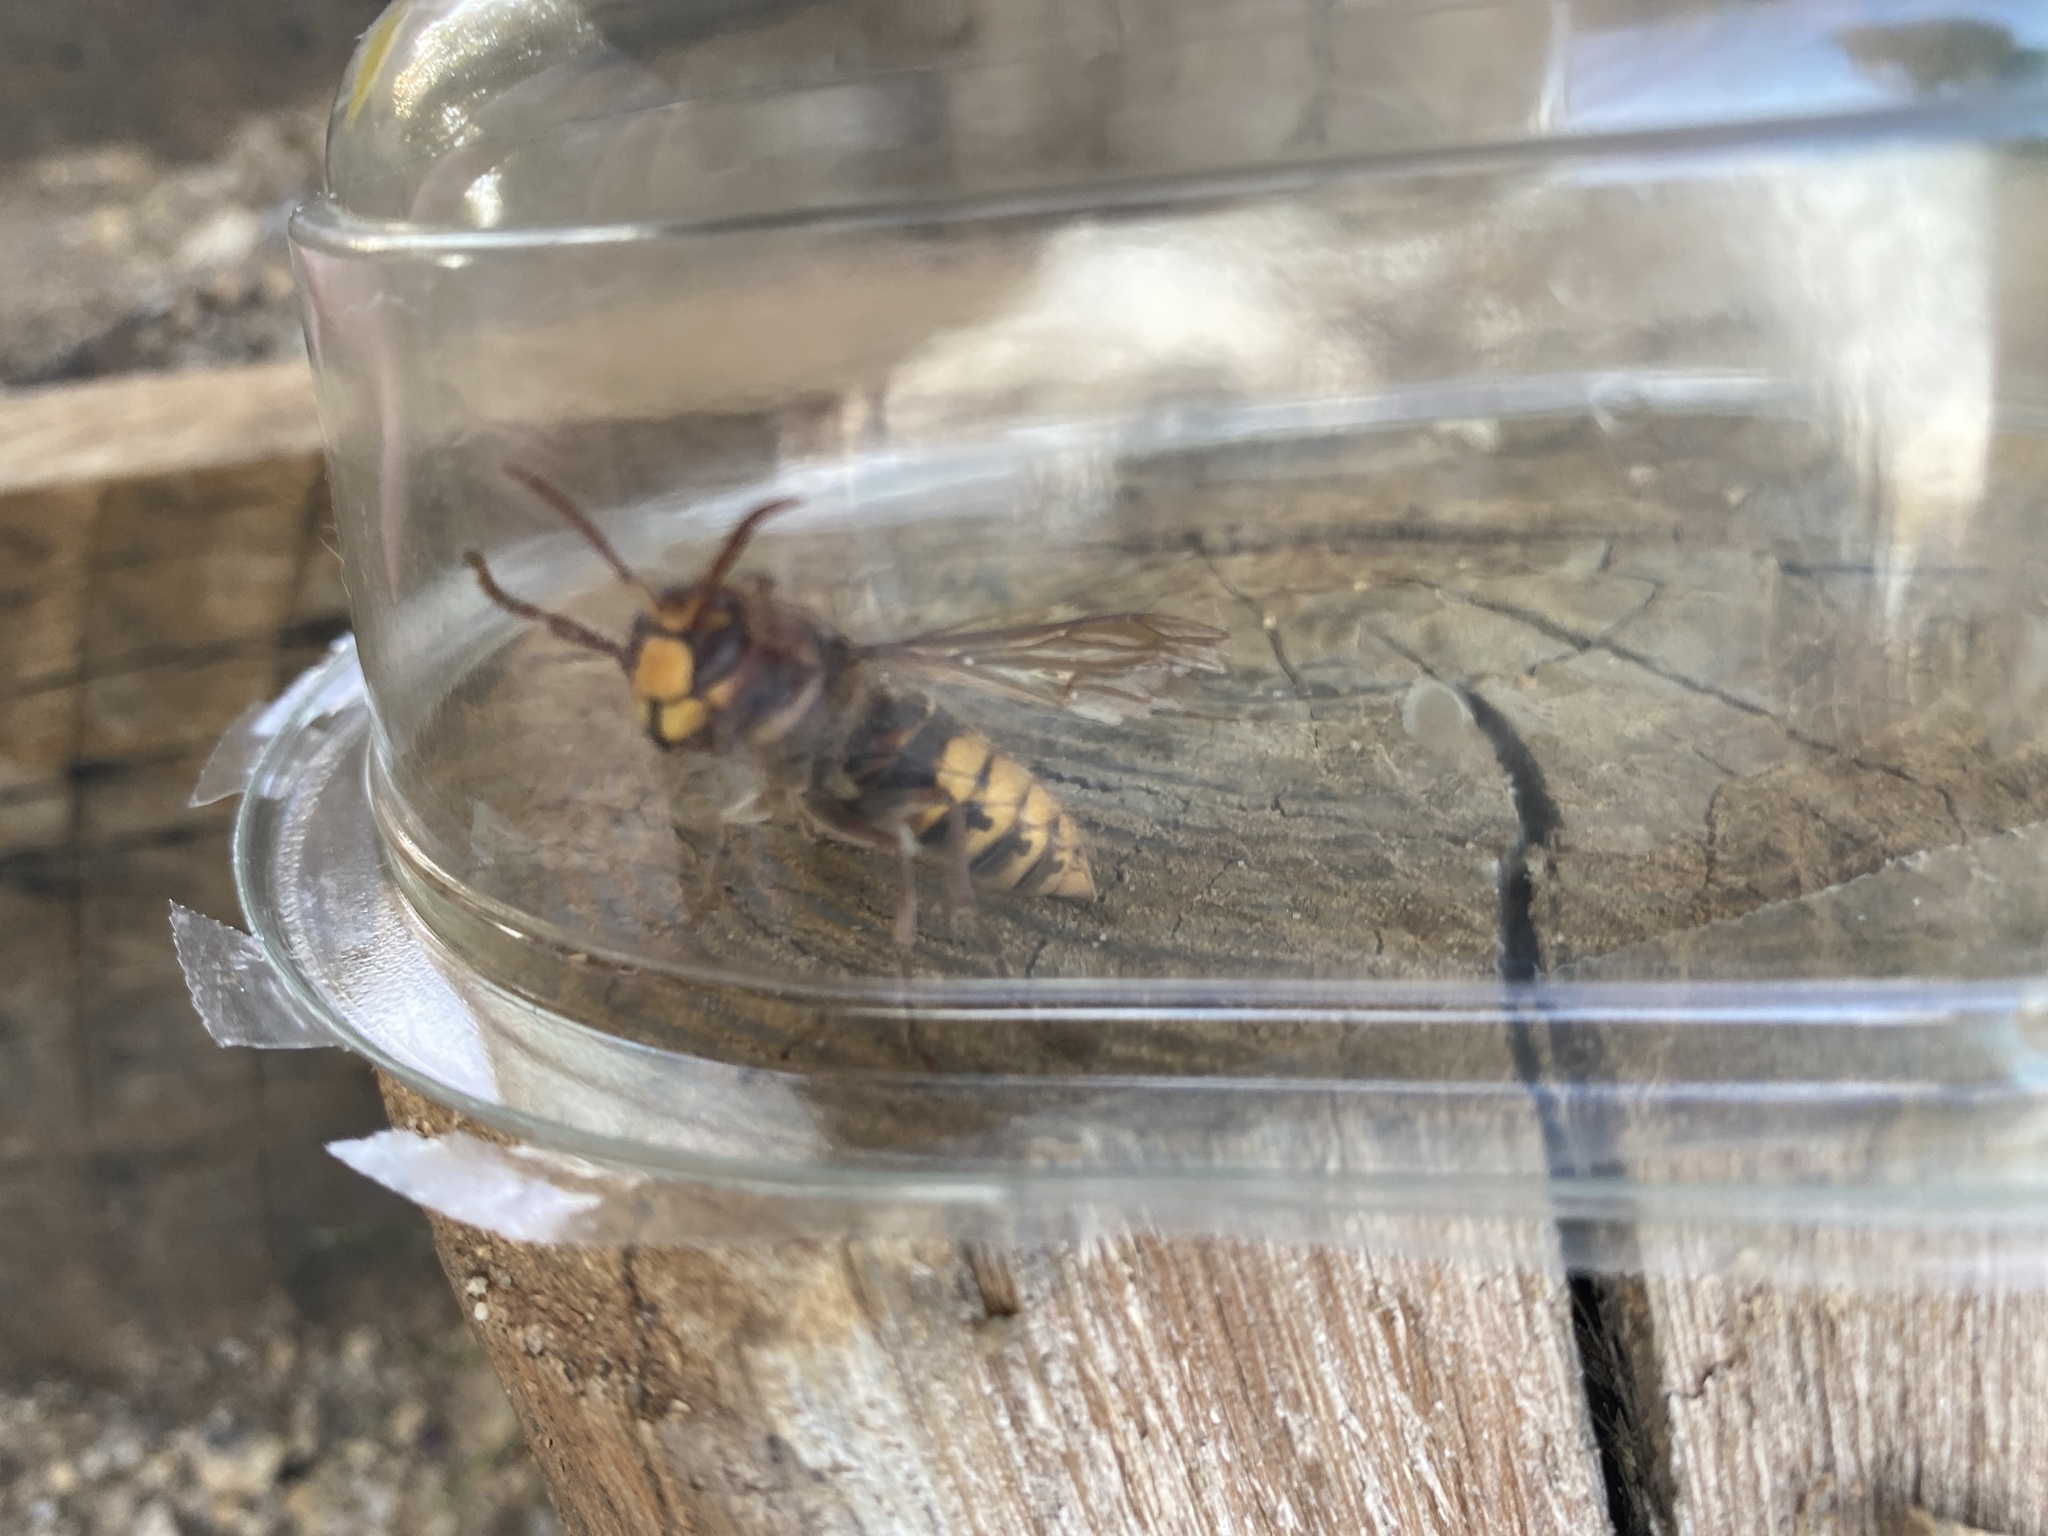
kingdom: Animalia
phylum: Arthropoda
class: Insecta
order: Hymenoptera
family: Vespidae
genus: Vespa
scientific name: Vespa crabro
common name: Hornet
